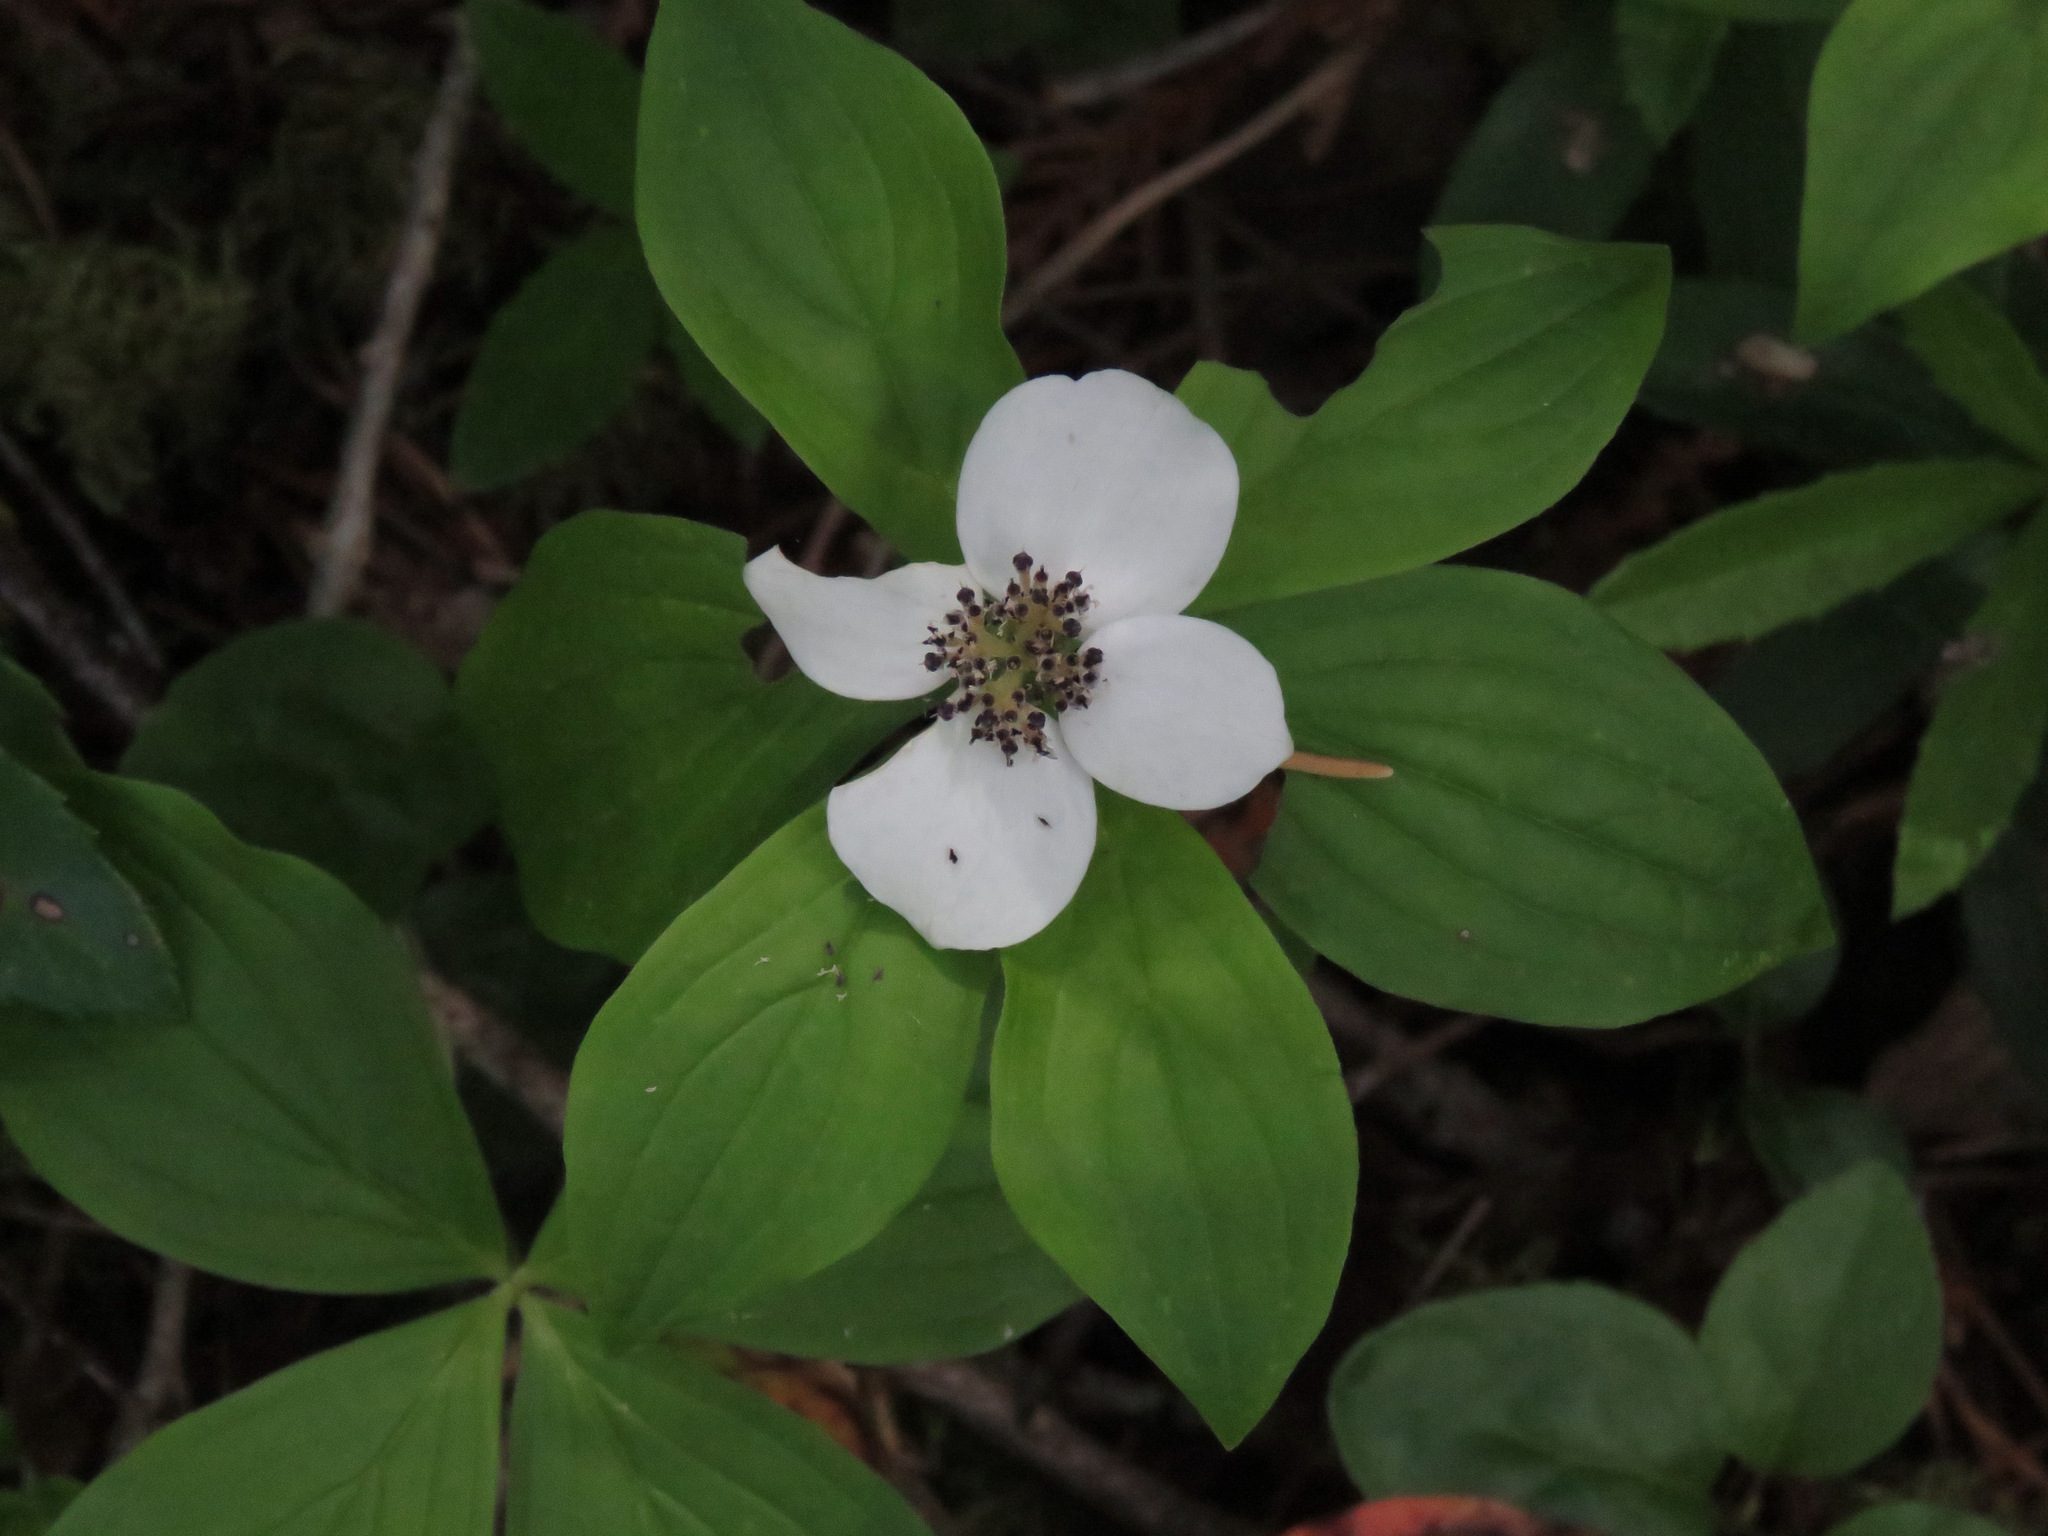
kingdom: Plantae
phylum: Tracheophyta
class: Magnoliopsida
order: Cornales
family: Cornaceae
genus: Cornus
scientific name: Cornus unalaschkensis
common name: Alaska bunchberry
